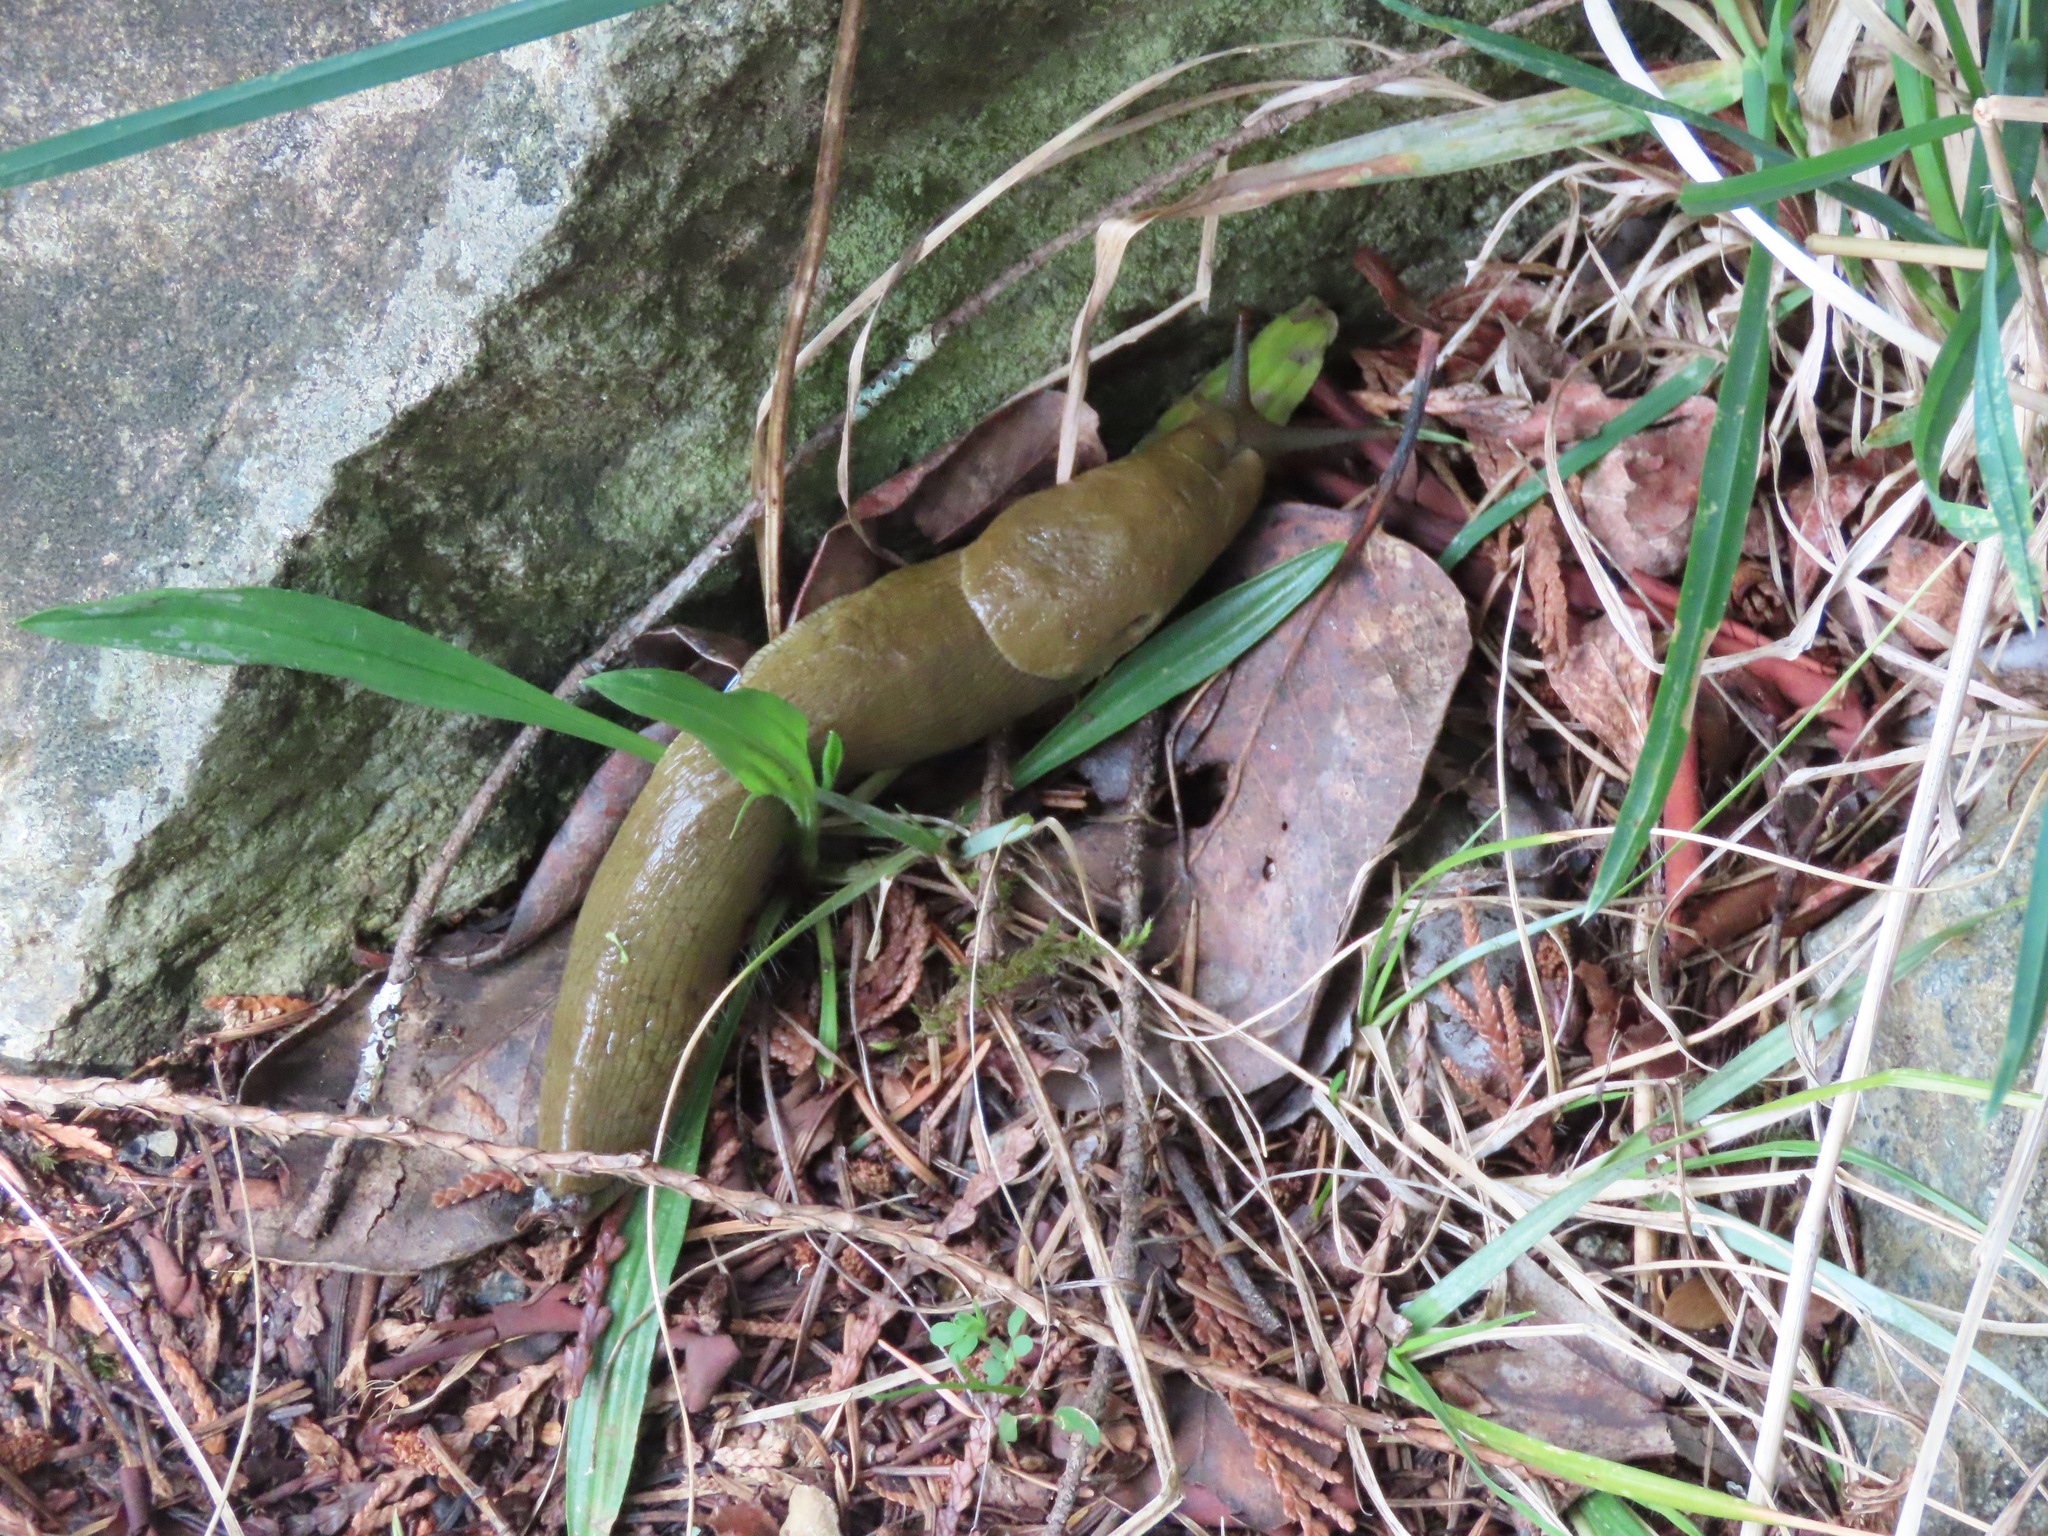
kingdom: Animalia
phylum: Mollusca
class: Gastropoda
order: Stylommatophora
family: Ariolimacidae
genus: Ariolimax
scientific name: Ariolimax columbianus
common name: Pacific banana slug
